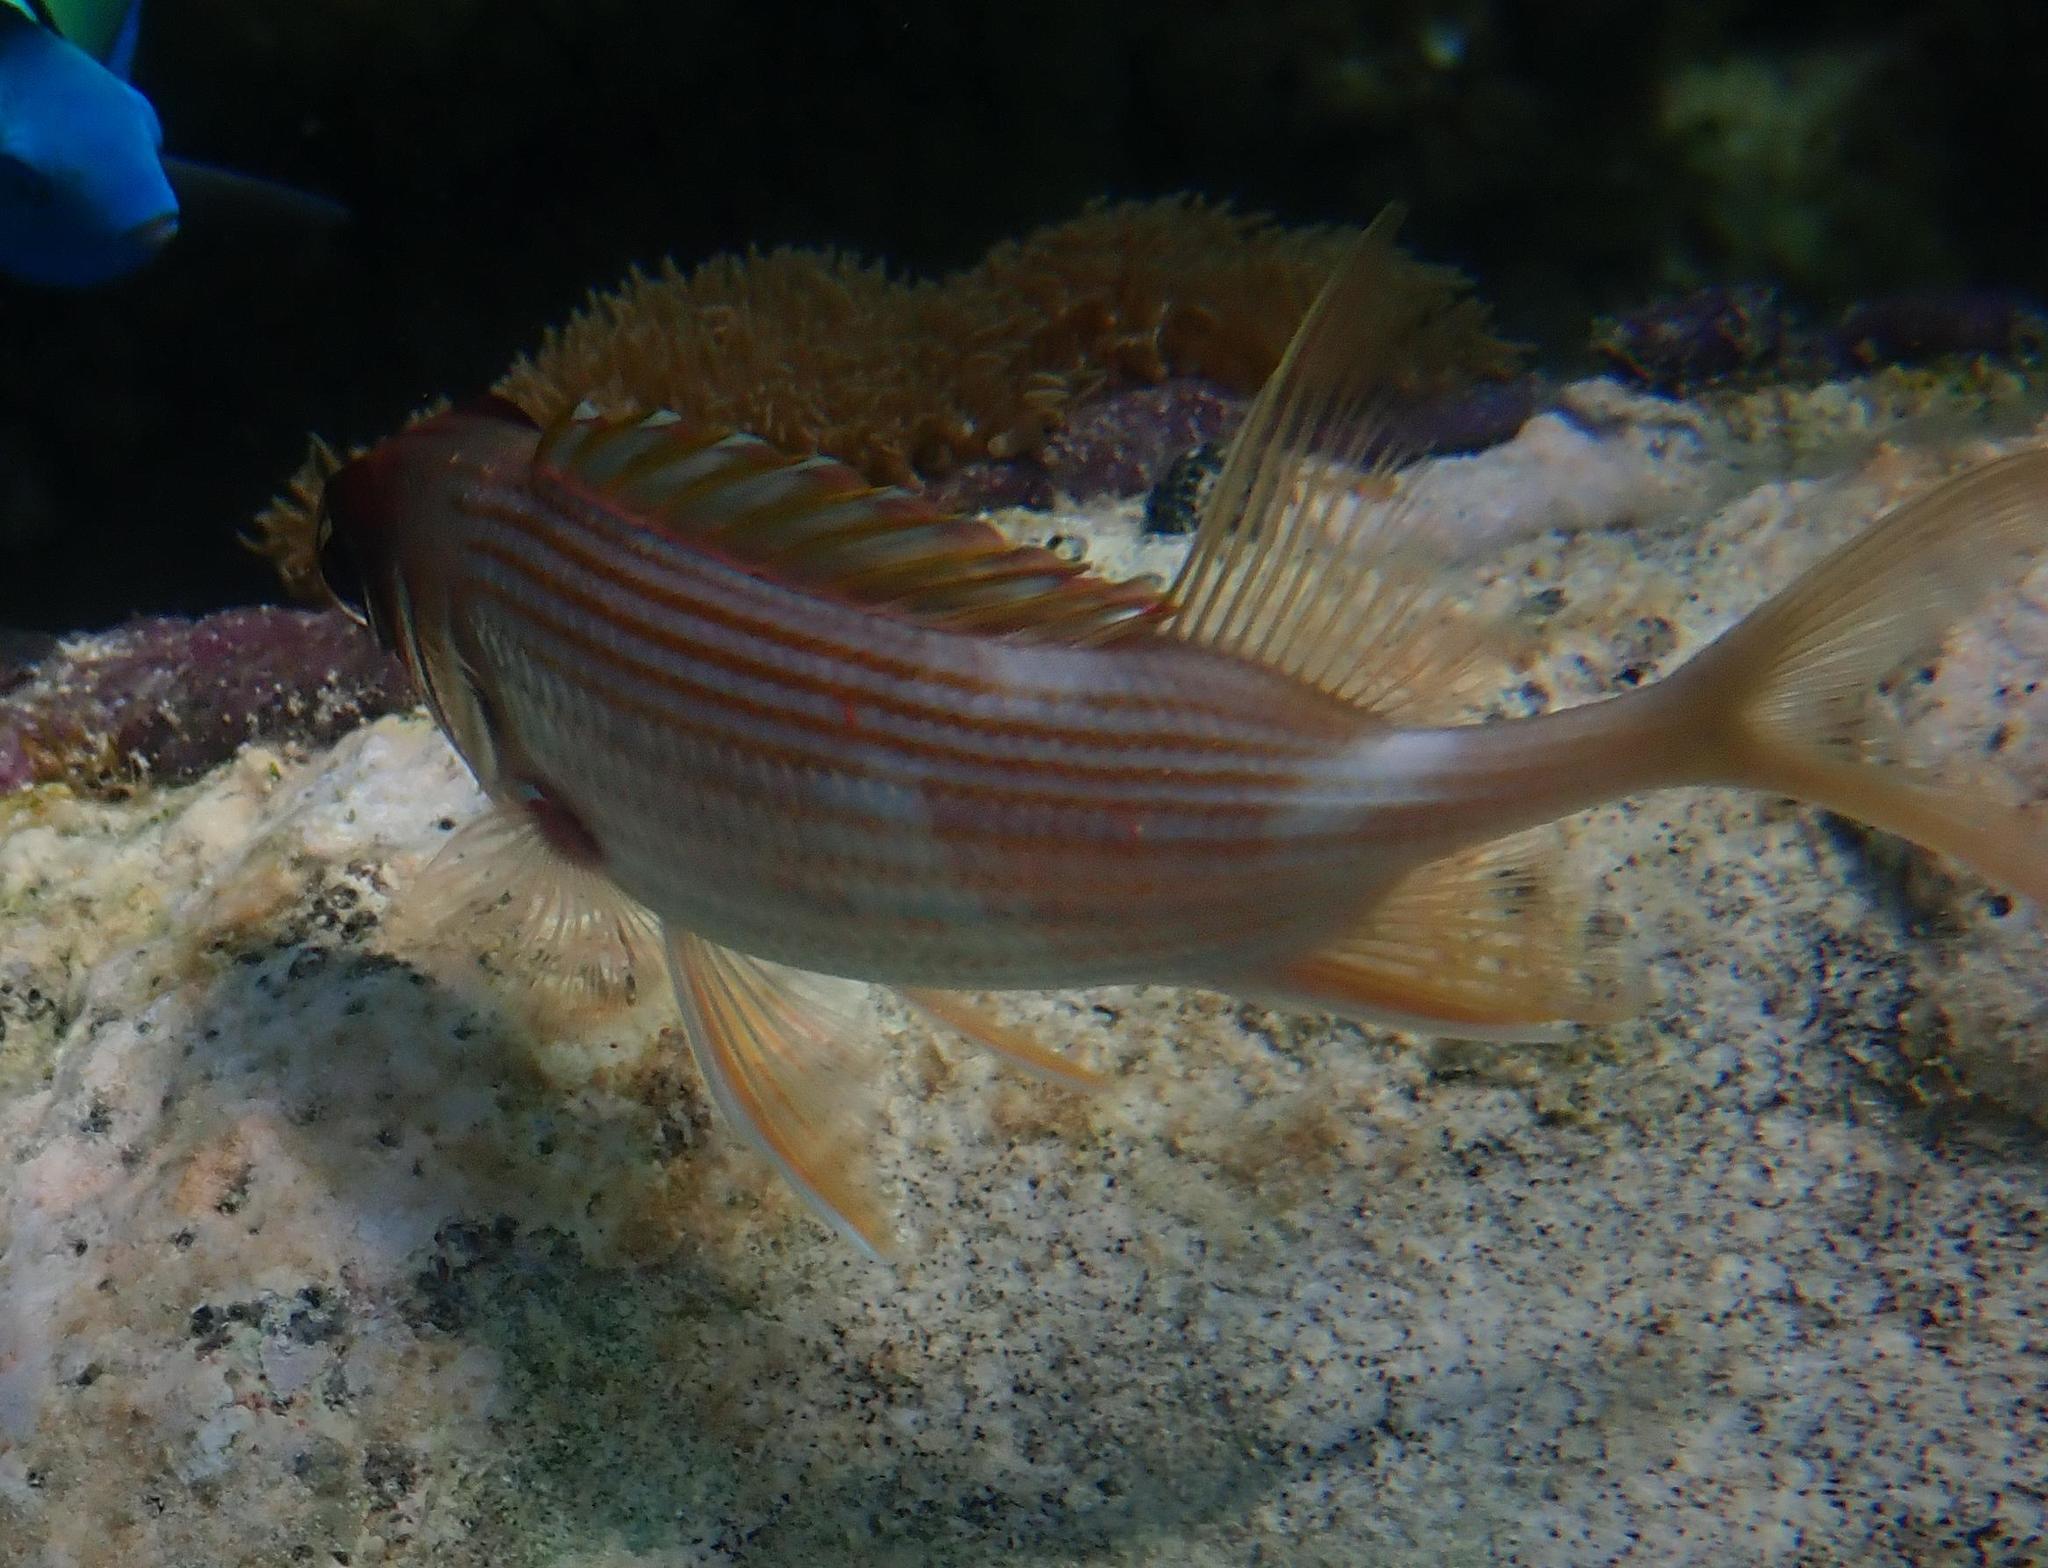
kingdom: Animalia
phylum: Chordata
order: Beryciformes
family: Holocentridae
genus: Holocentrus
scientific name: Holocentrus rufus
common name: Longspine squirrelfish
